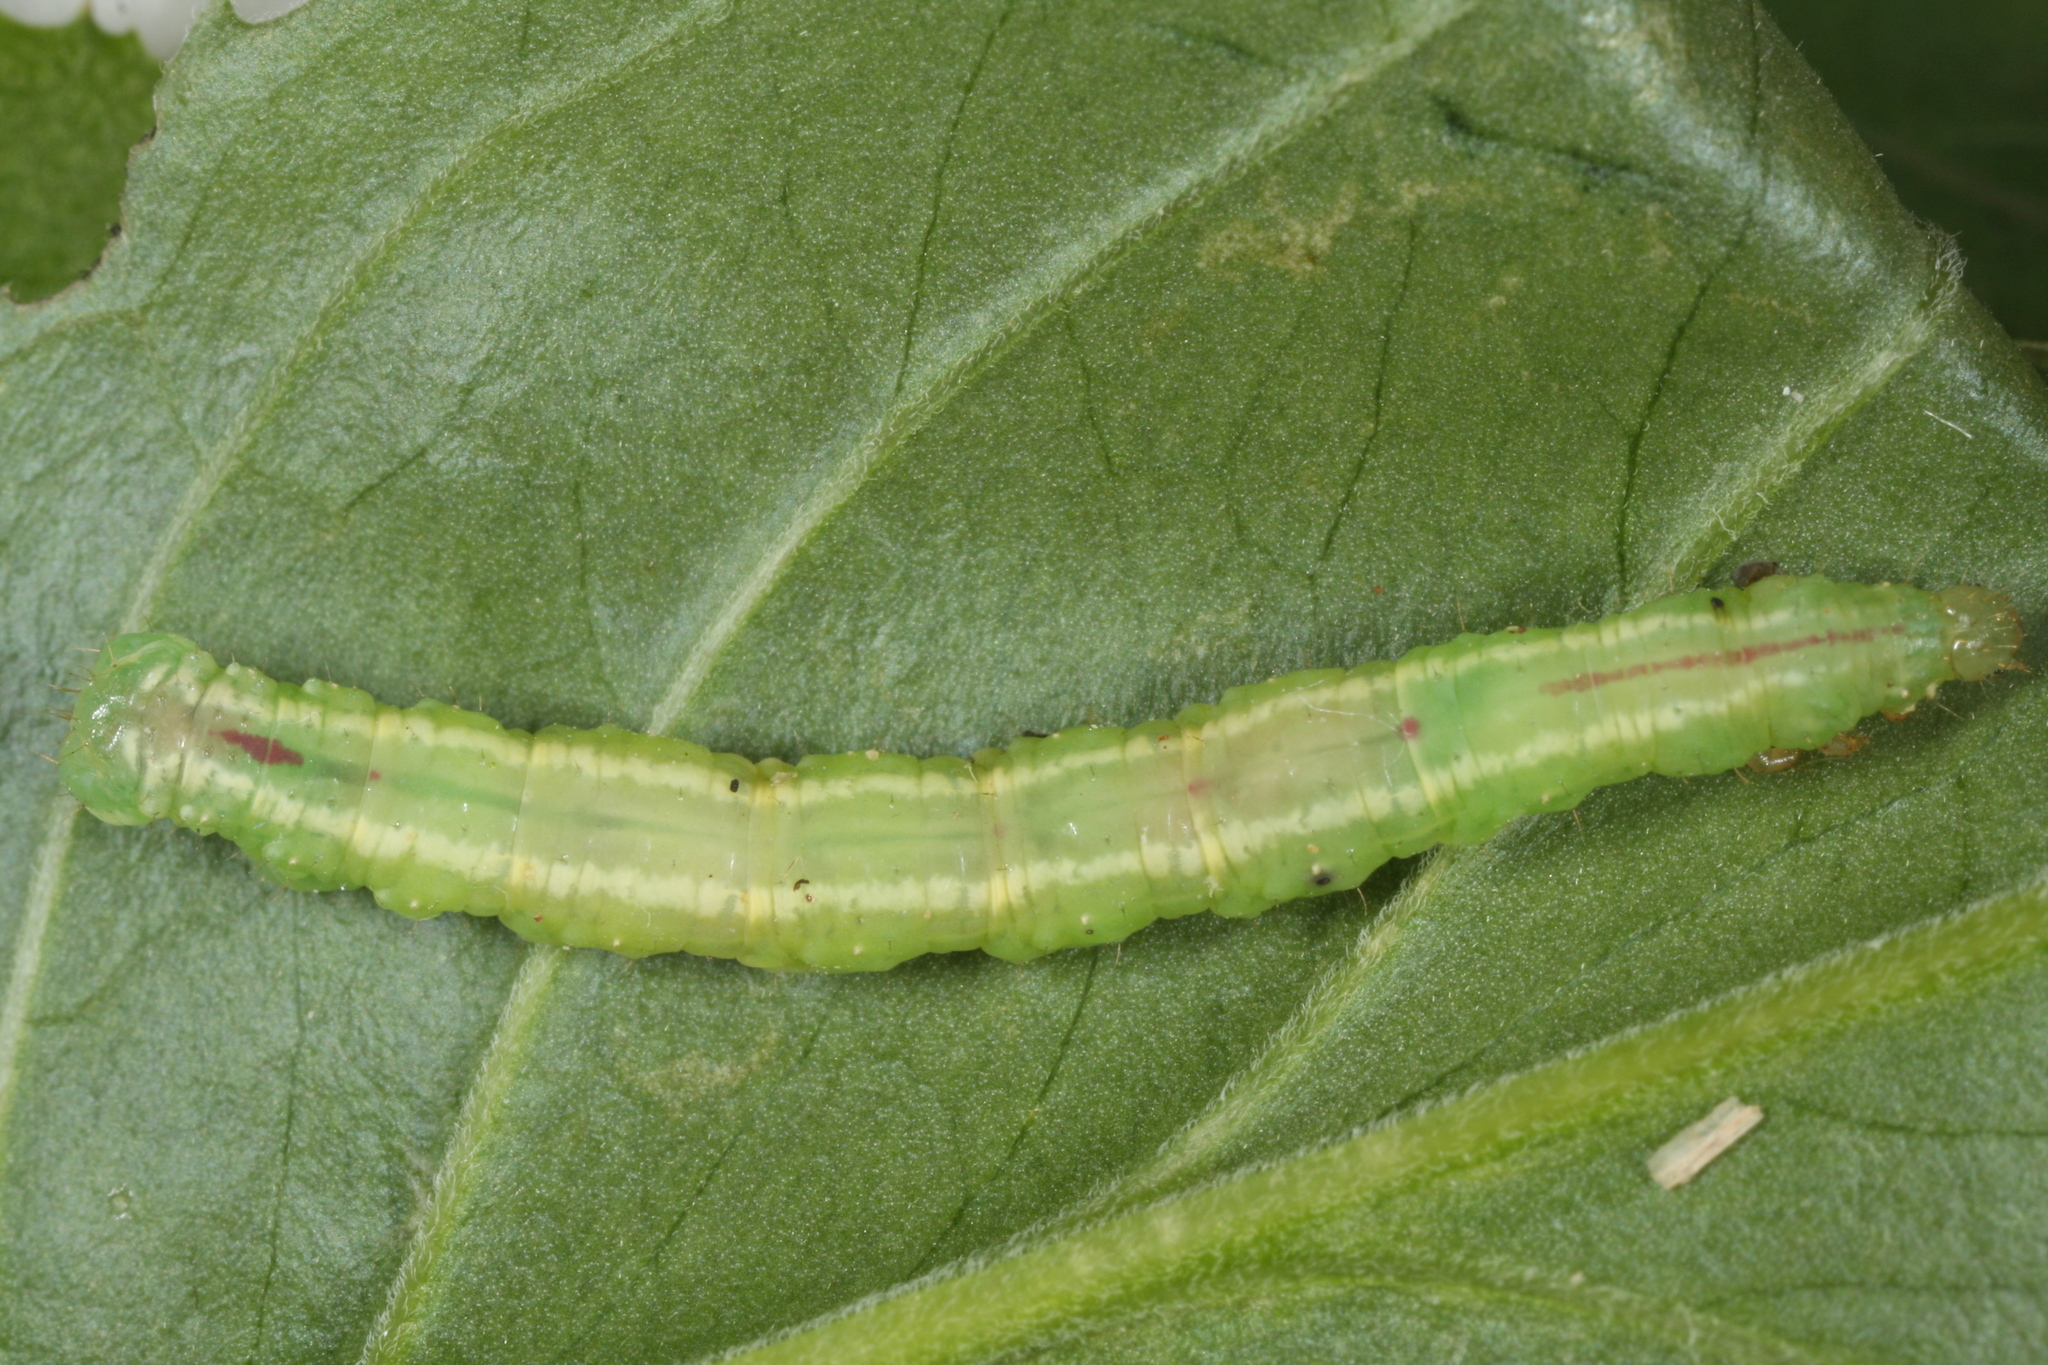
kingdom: Animalia
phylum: Arthropoda
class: Insecta
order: Lepidoptera
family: Geometridae
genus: Eustroma
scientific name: Eustroma reticulata
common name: Netted carpet
